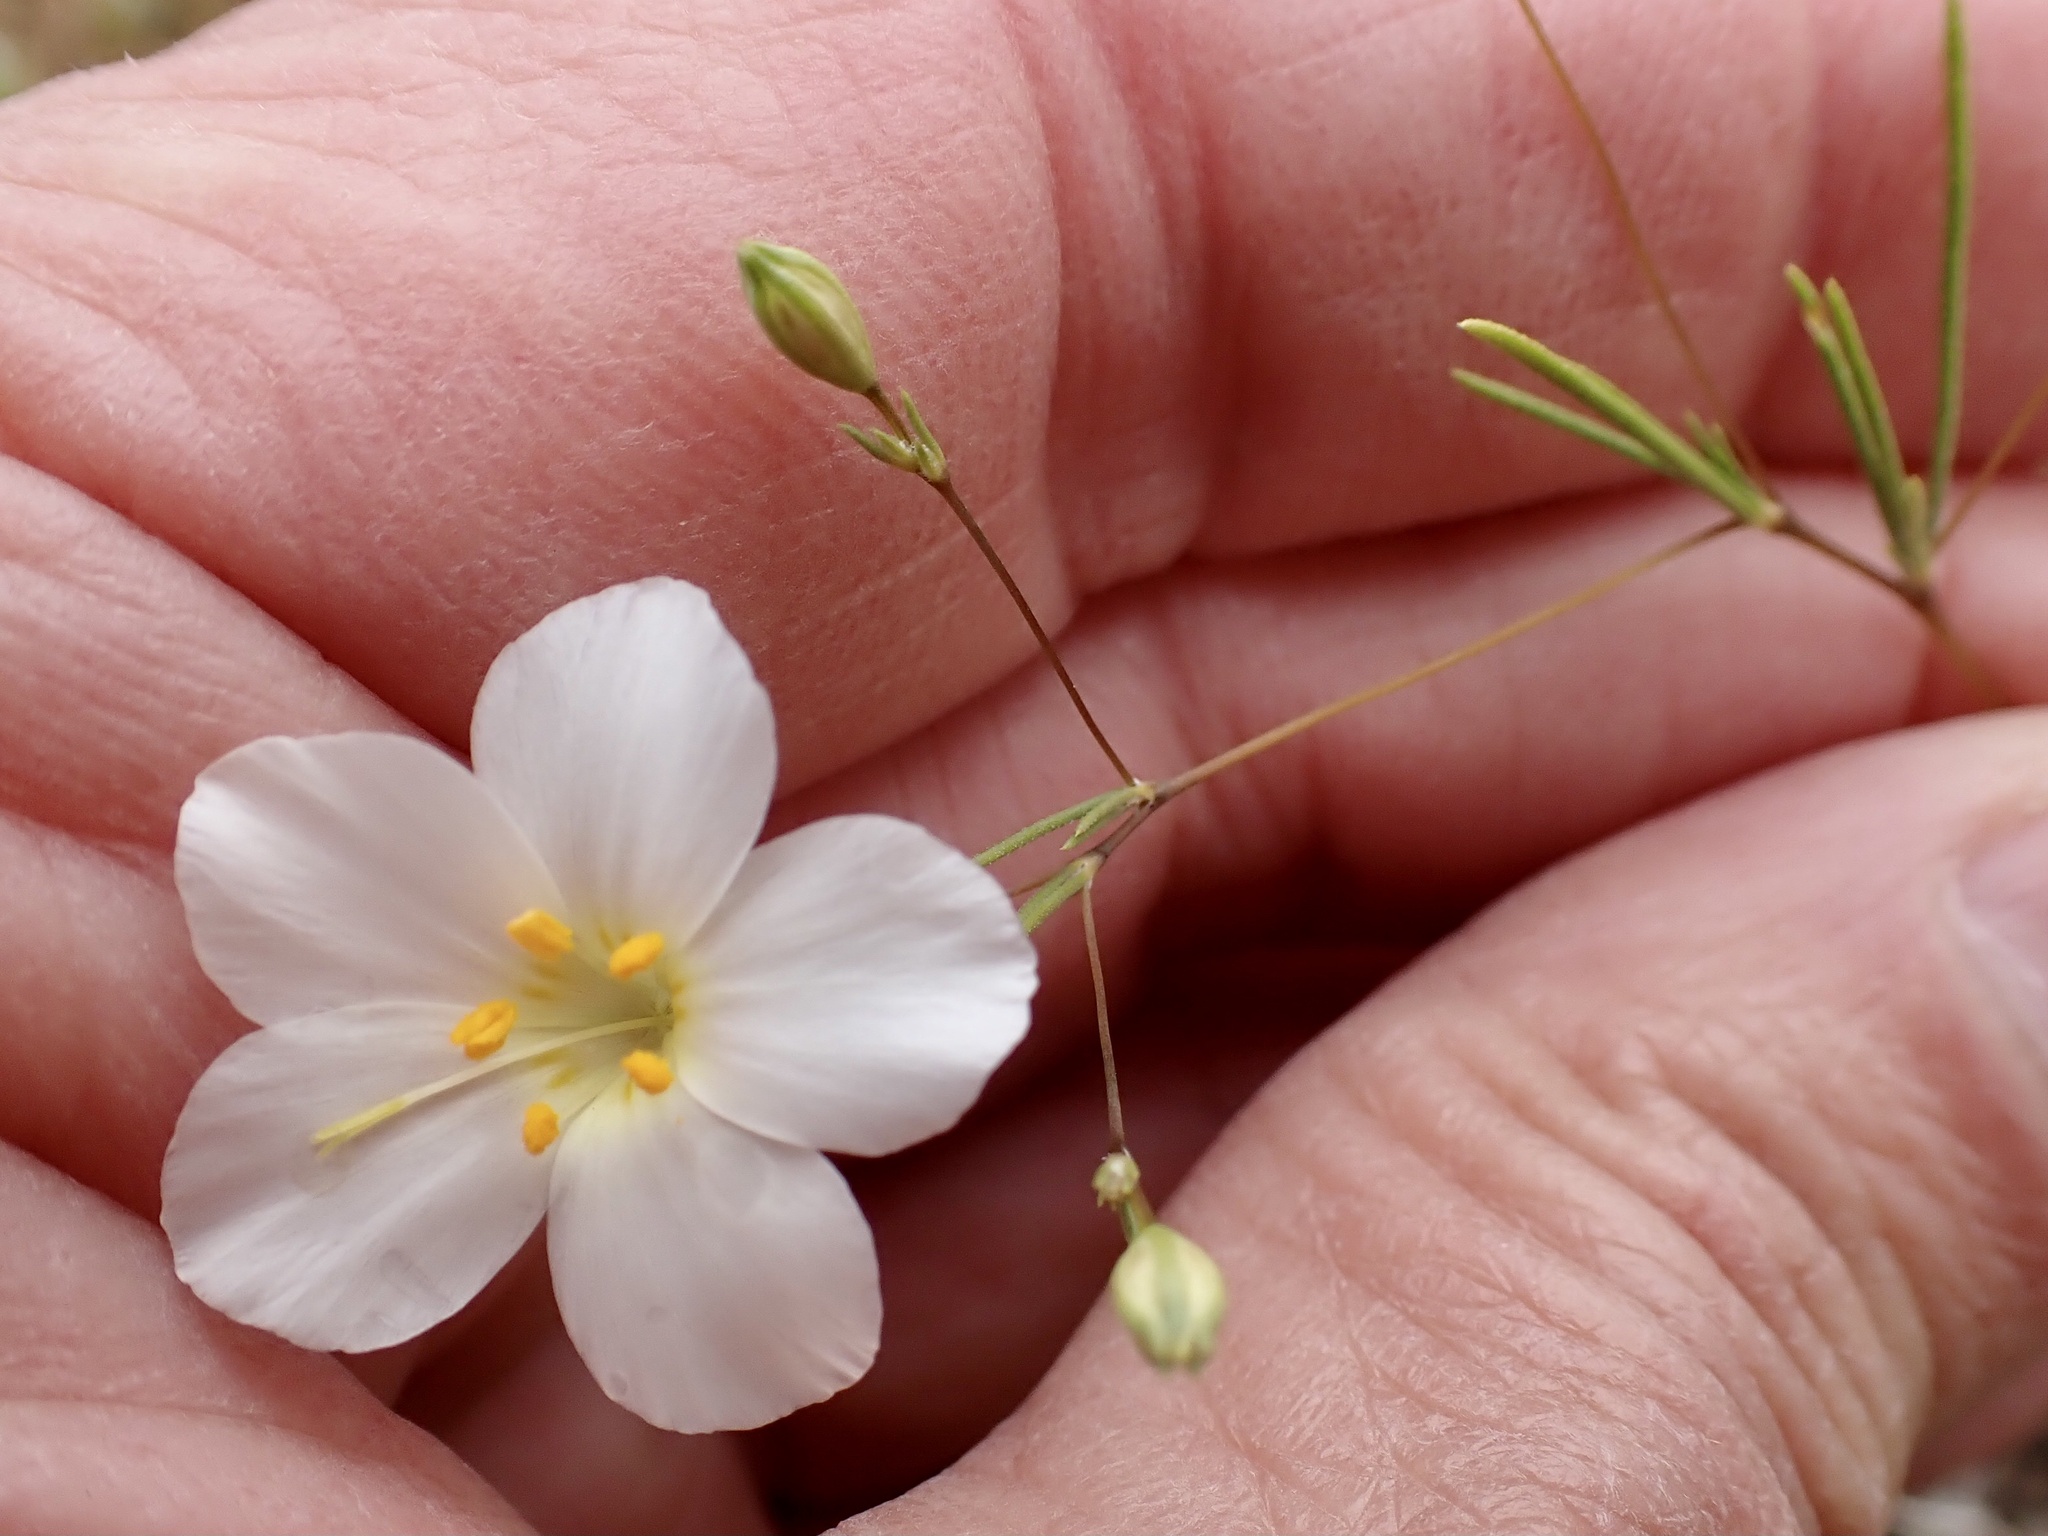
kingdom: Plantae
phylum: Tracheophyta
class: Magnoliopsida
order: Ericales
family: Polemoniaceae
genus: Leptosiphon
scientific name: Leptosiphon liniflorus
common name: Narrowflower flaxflower
